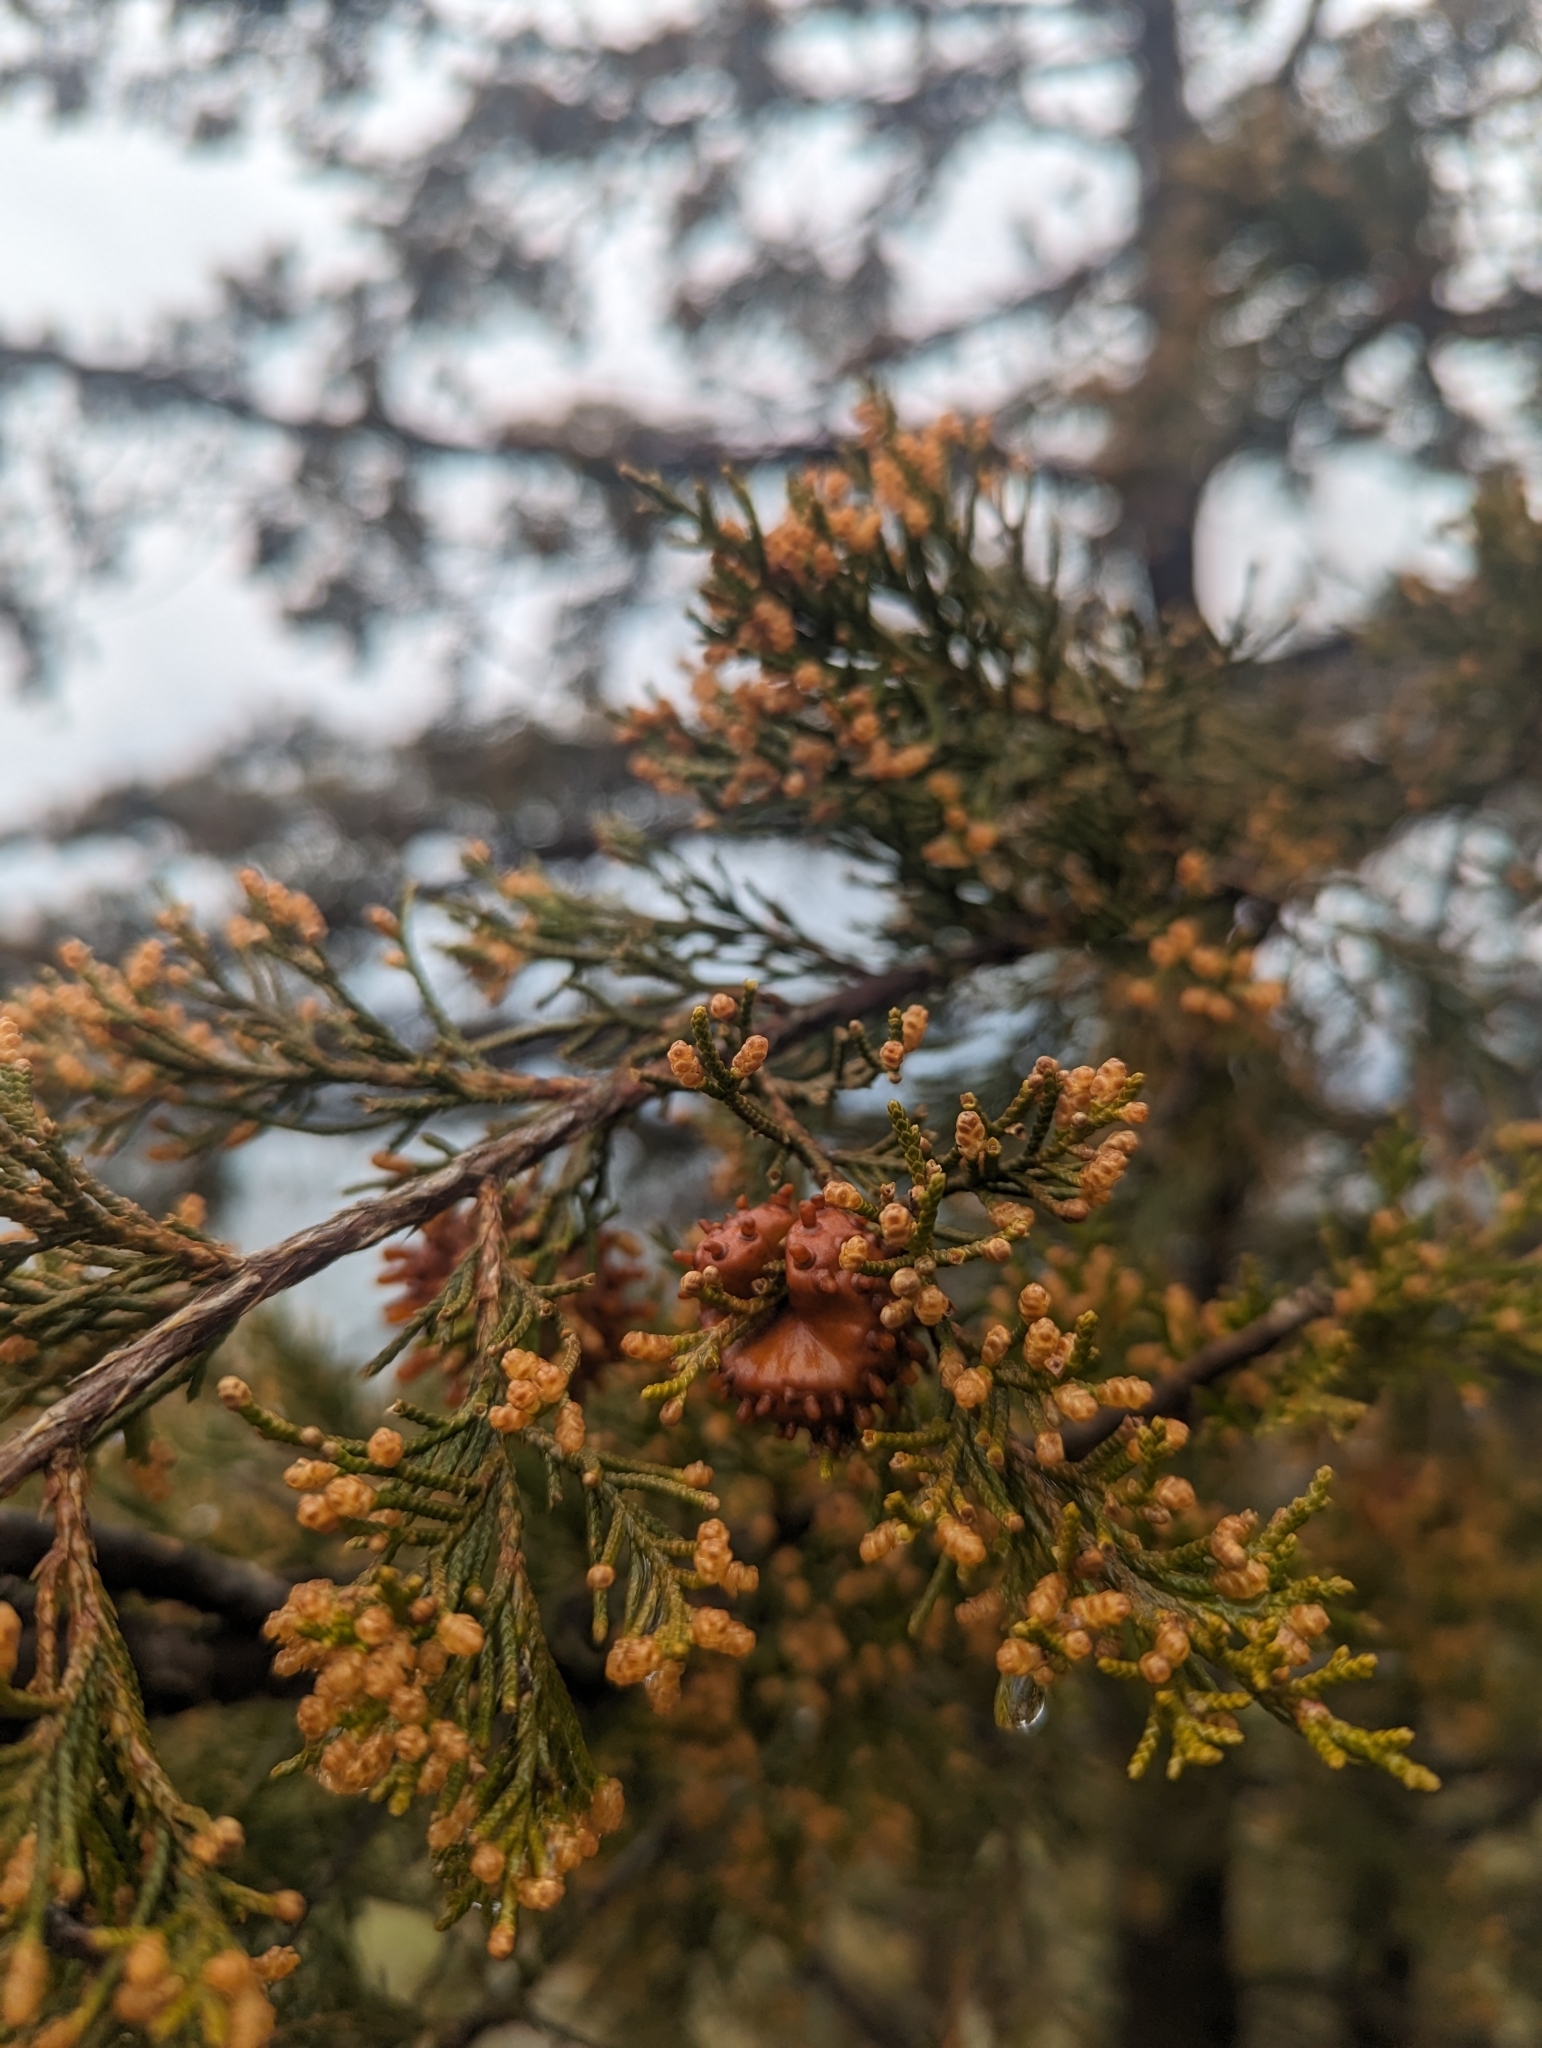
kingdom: Fungi
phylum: Basidiomycota
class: Pucciniomycetes
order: Pucciniales
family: Gymnosporangiaceae
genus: Gymnosporangium
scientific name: Gymnosporangium juniperi-virginianae
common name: Juniper-apple rust
